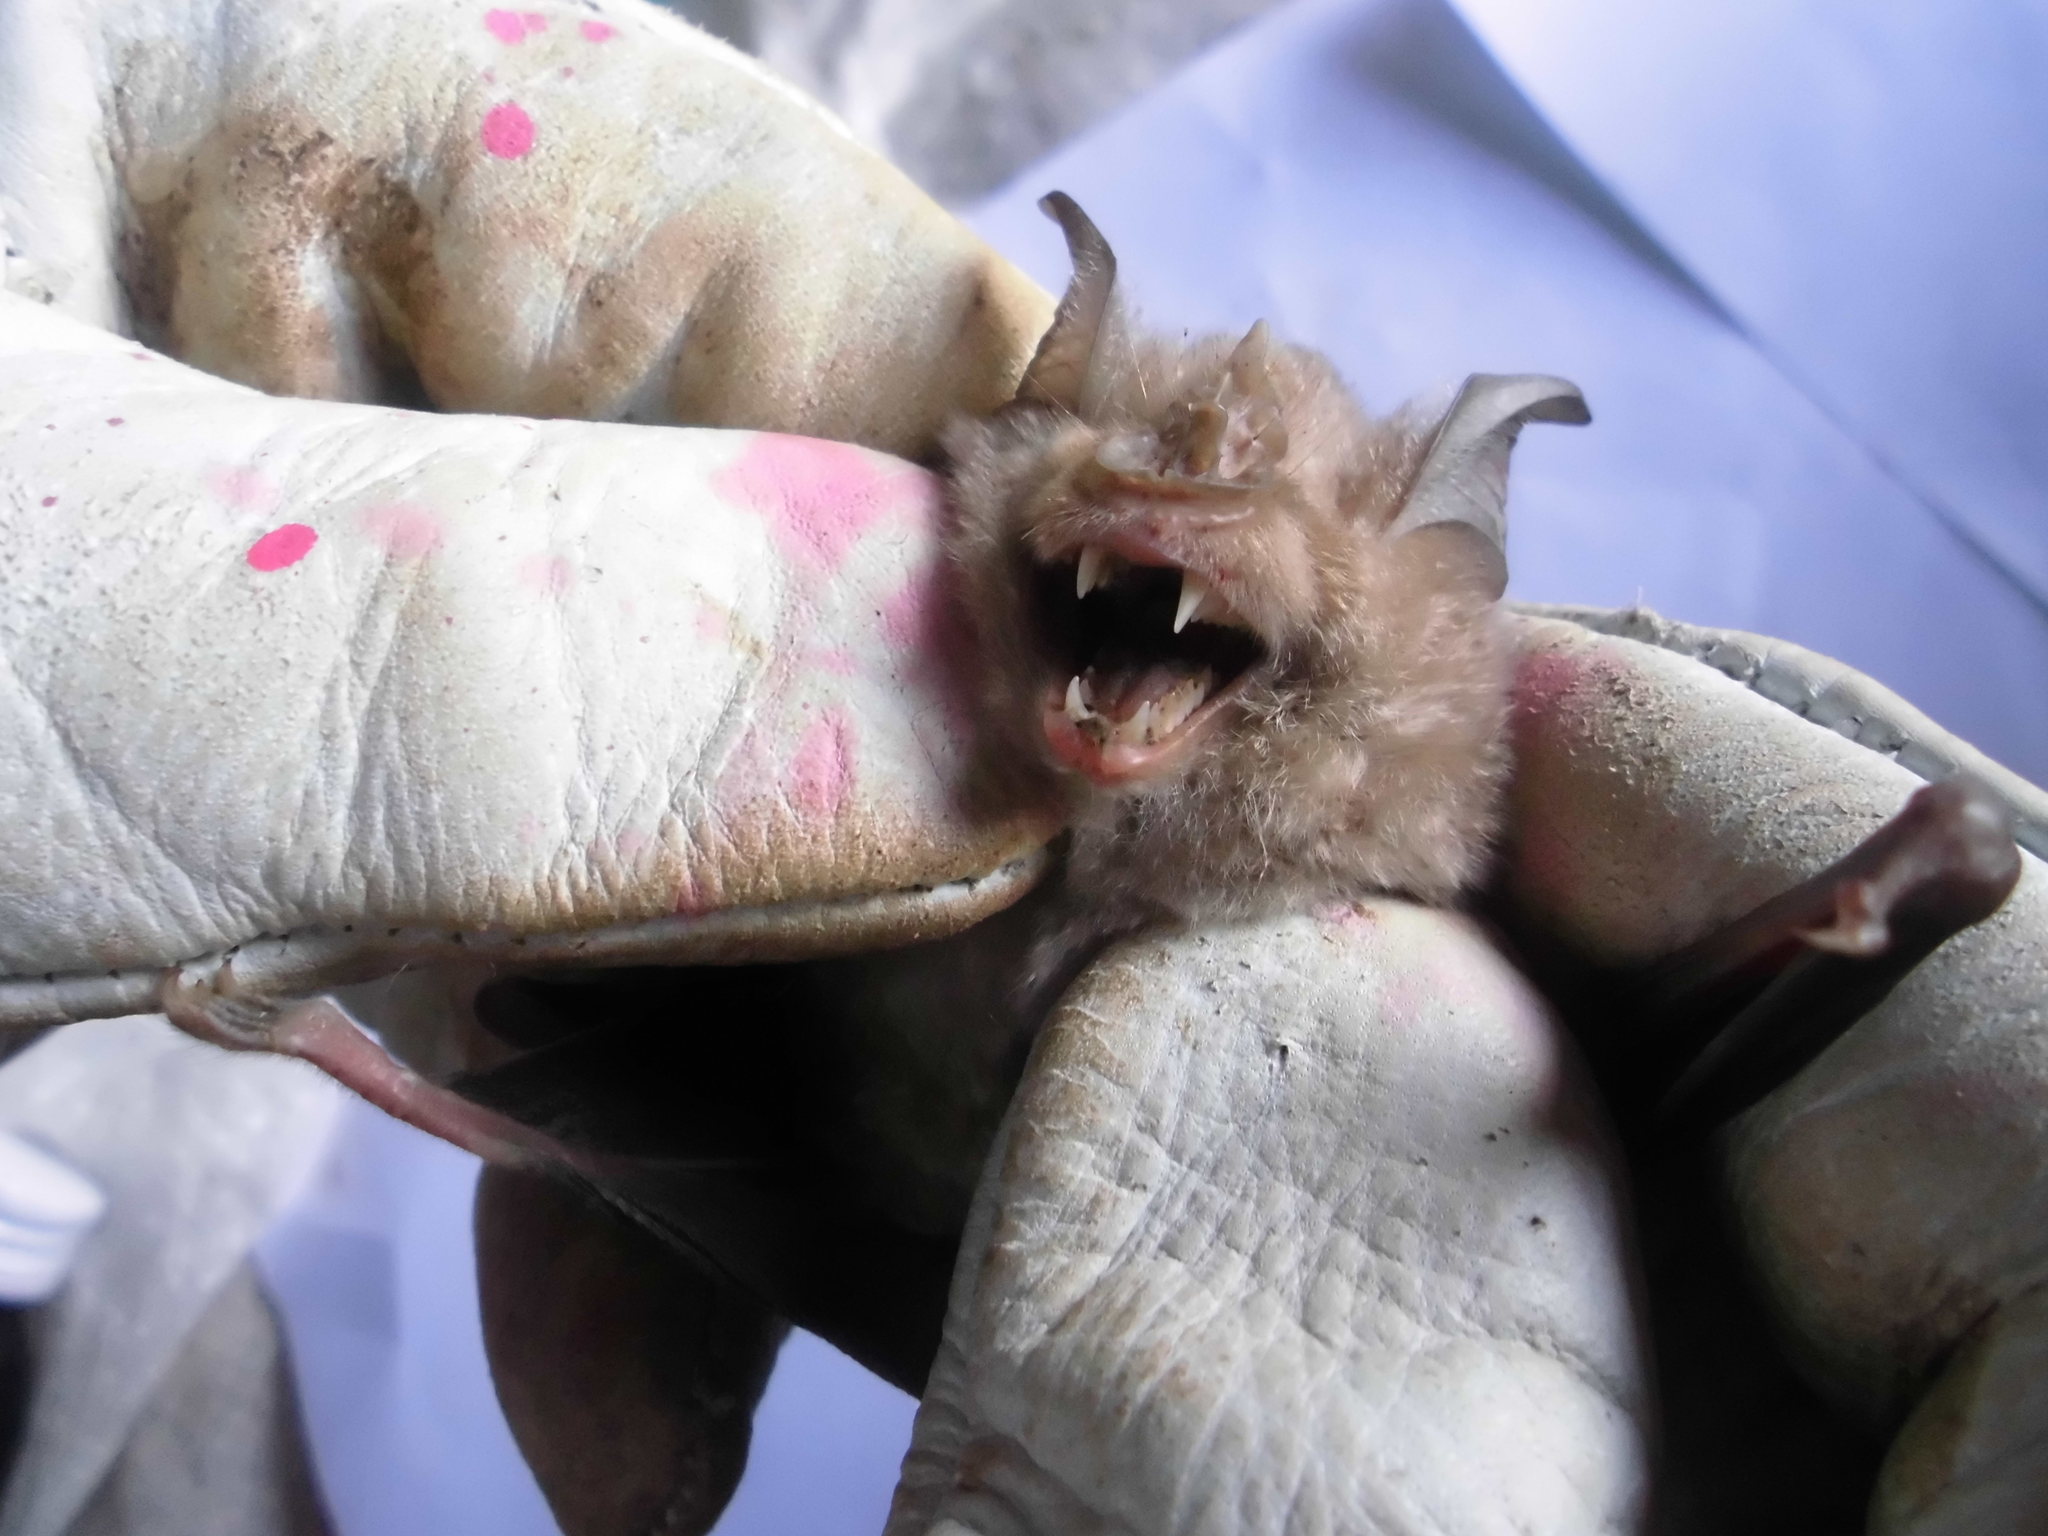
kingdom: Animalia
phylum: Chordata
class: Mammalia
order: Chiroptera
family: Rhinolophidae
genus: Rhinolophus
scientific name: Rhinolophus mehelyi
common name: Mehely's horseshoe bat
